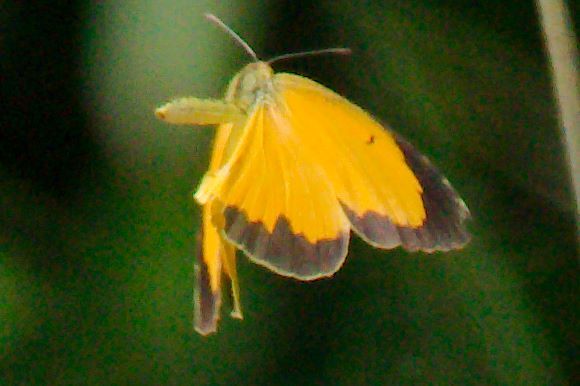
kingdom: Animalia
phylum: Arthropoda
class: Insecta
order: Lepidoptera
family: Pieridae
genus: Abaeis
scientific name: Abaeis nicippe
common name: Sleepy orange
